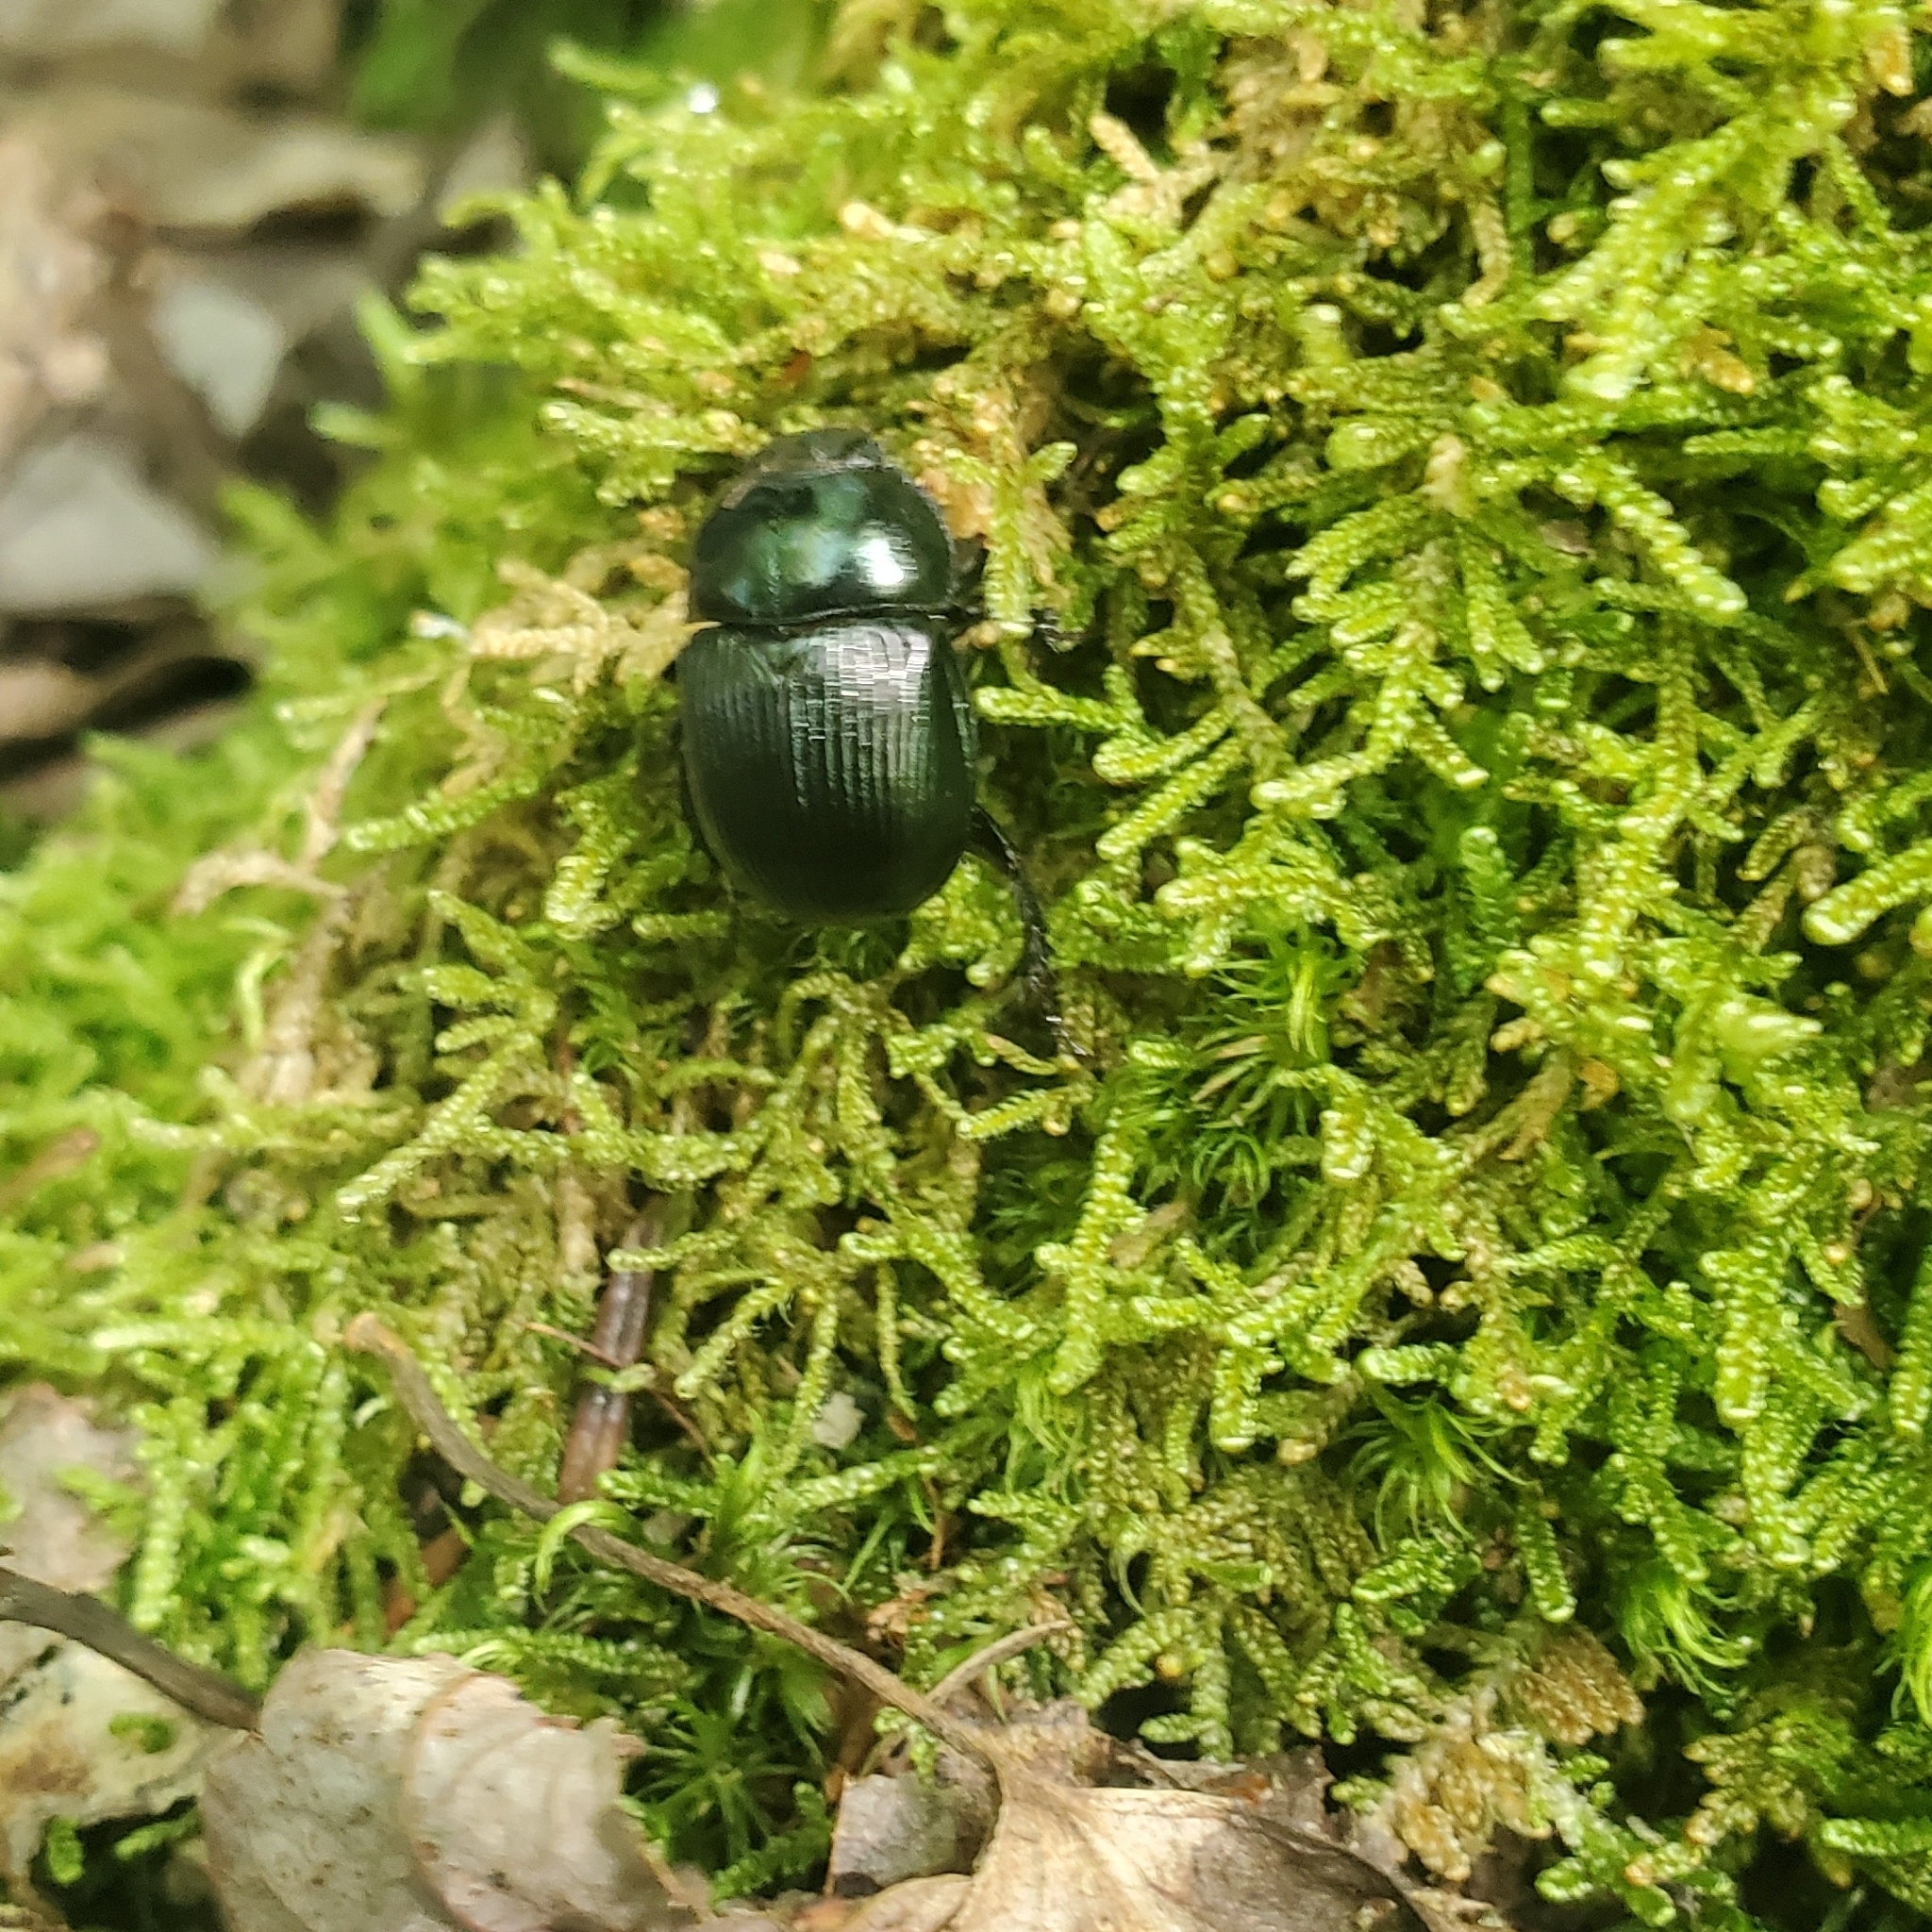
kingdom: Animalia
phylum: Arthropoda
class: Insecta
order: Coleoptera
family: Geotrupidae
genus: Anoplotrupes
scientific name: Anoplotrupes balyi
